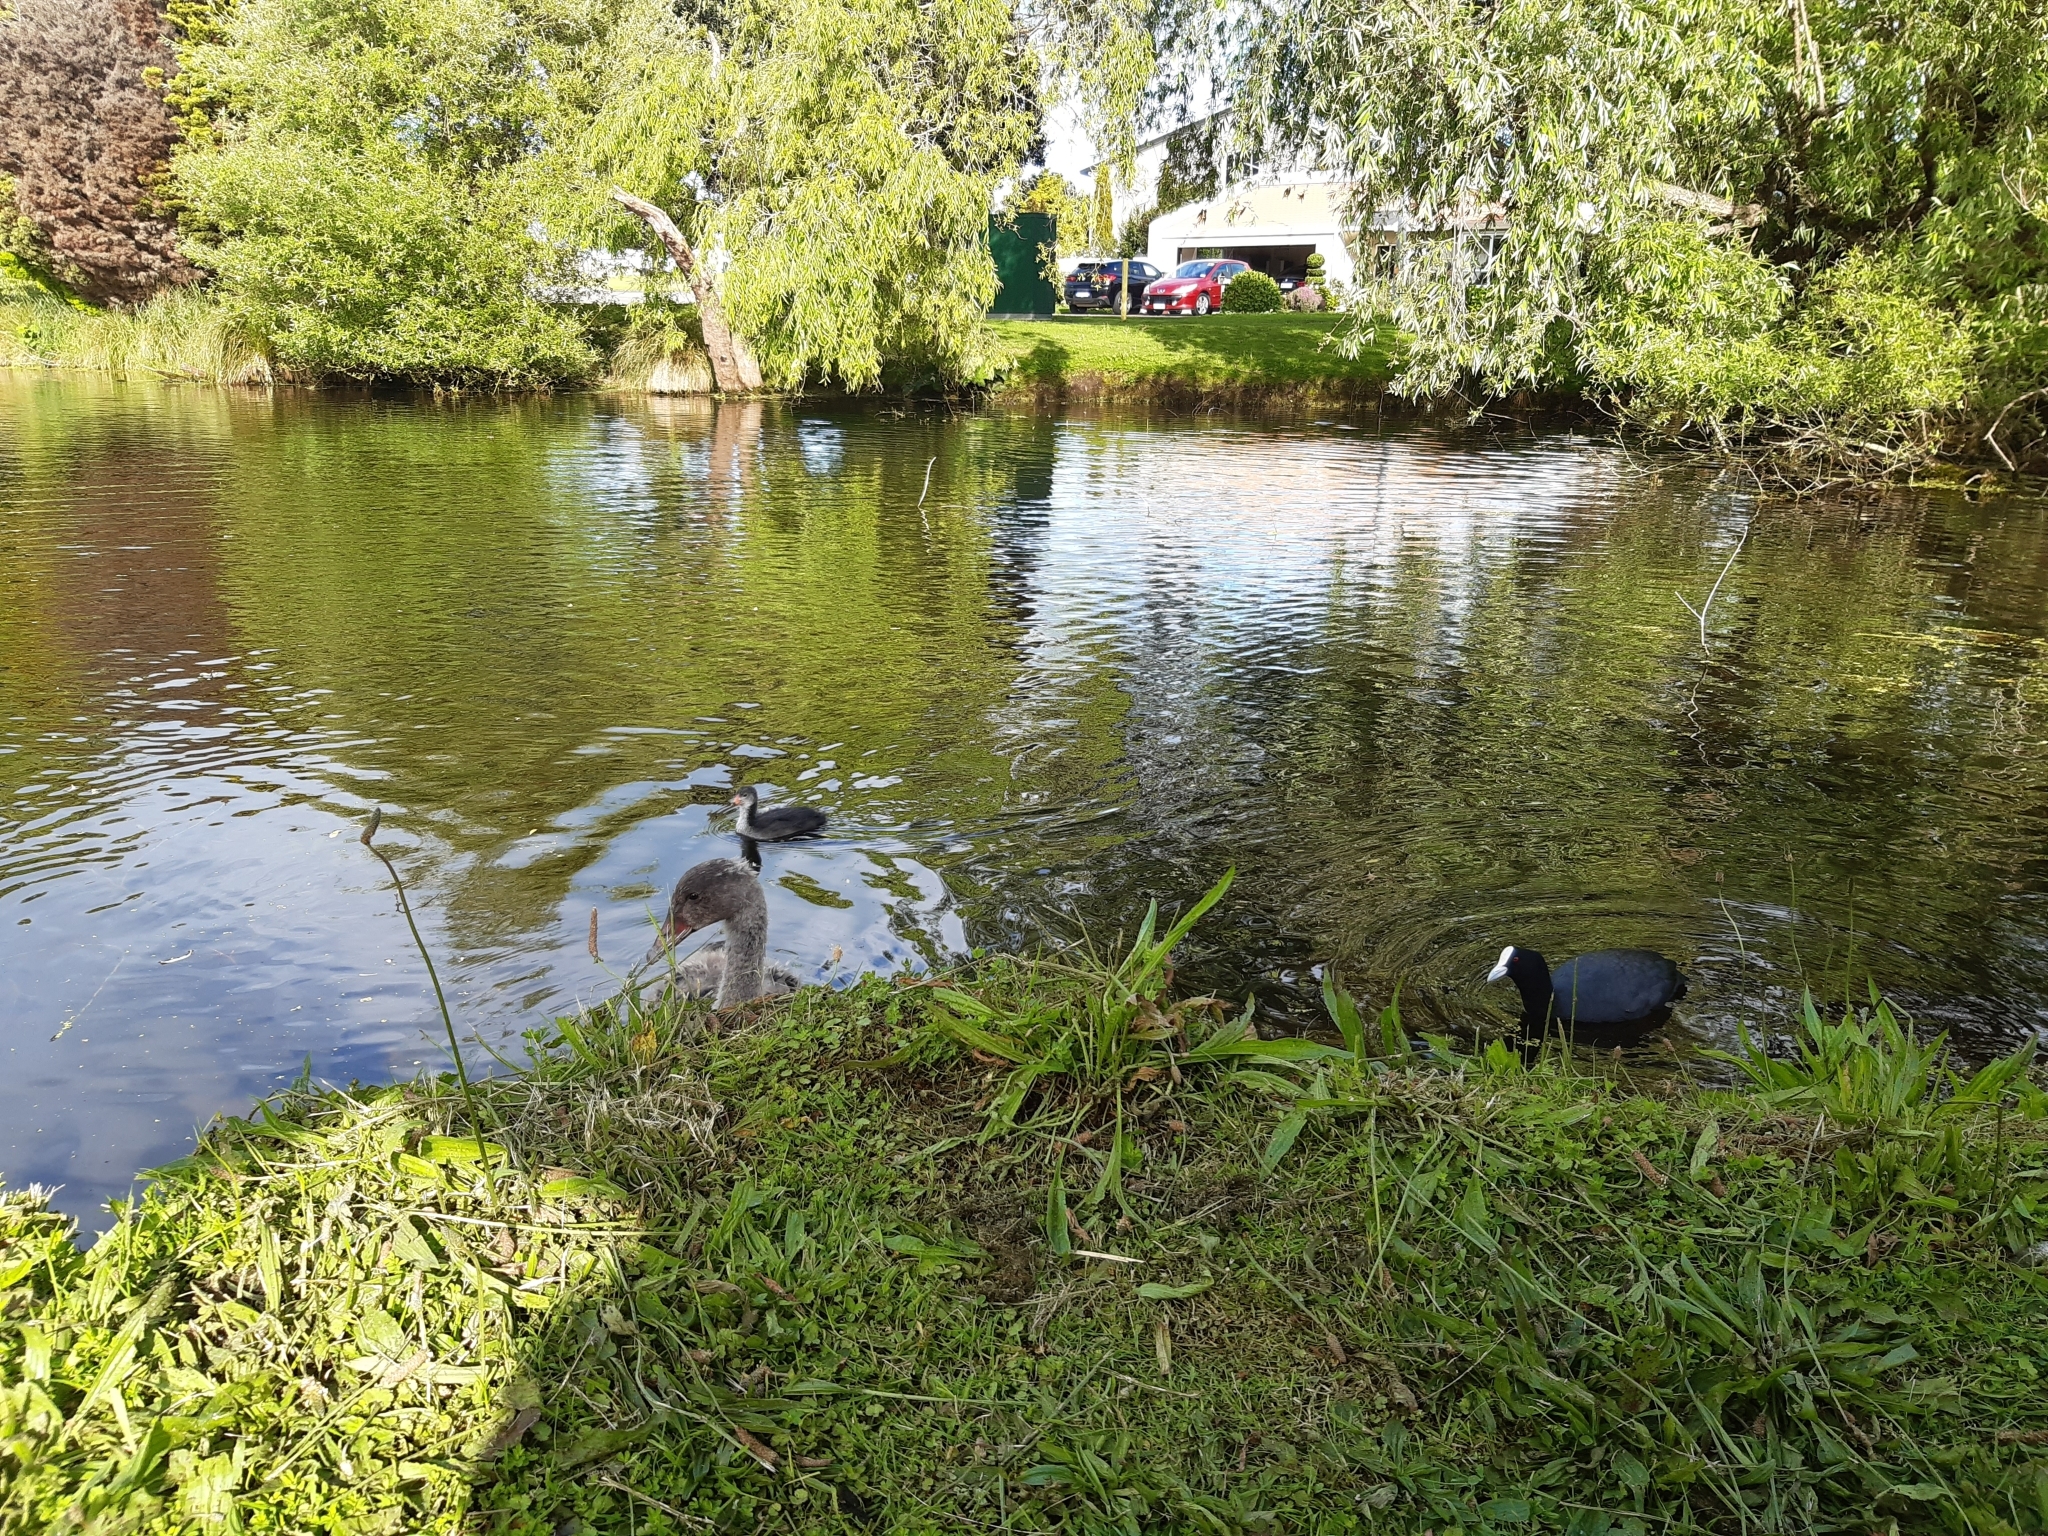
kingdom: Animalia
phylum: Chordata
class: Aves
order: Gruiformes
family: Rallidae
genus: Fulica
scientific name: Fulica atra
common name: Eurasian coot
